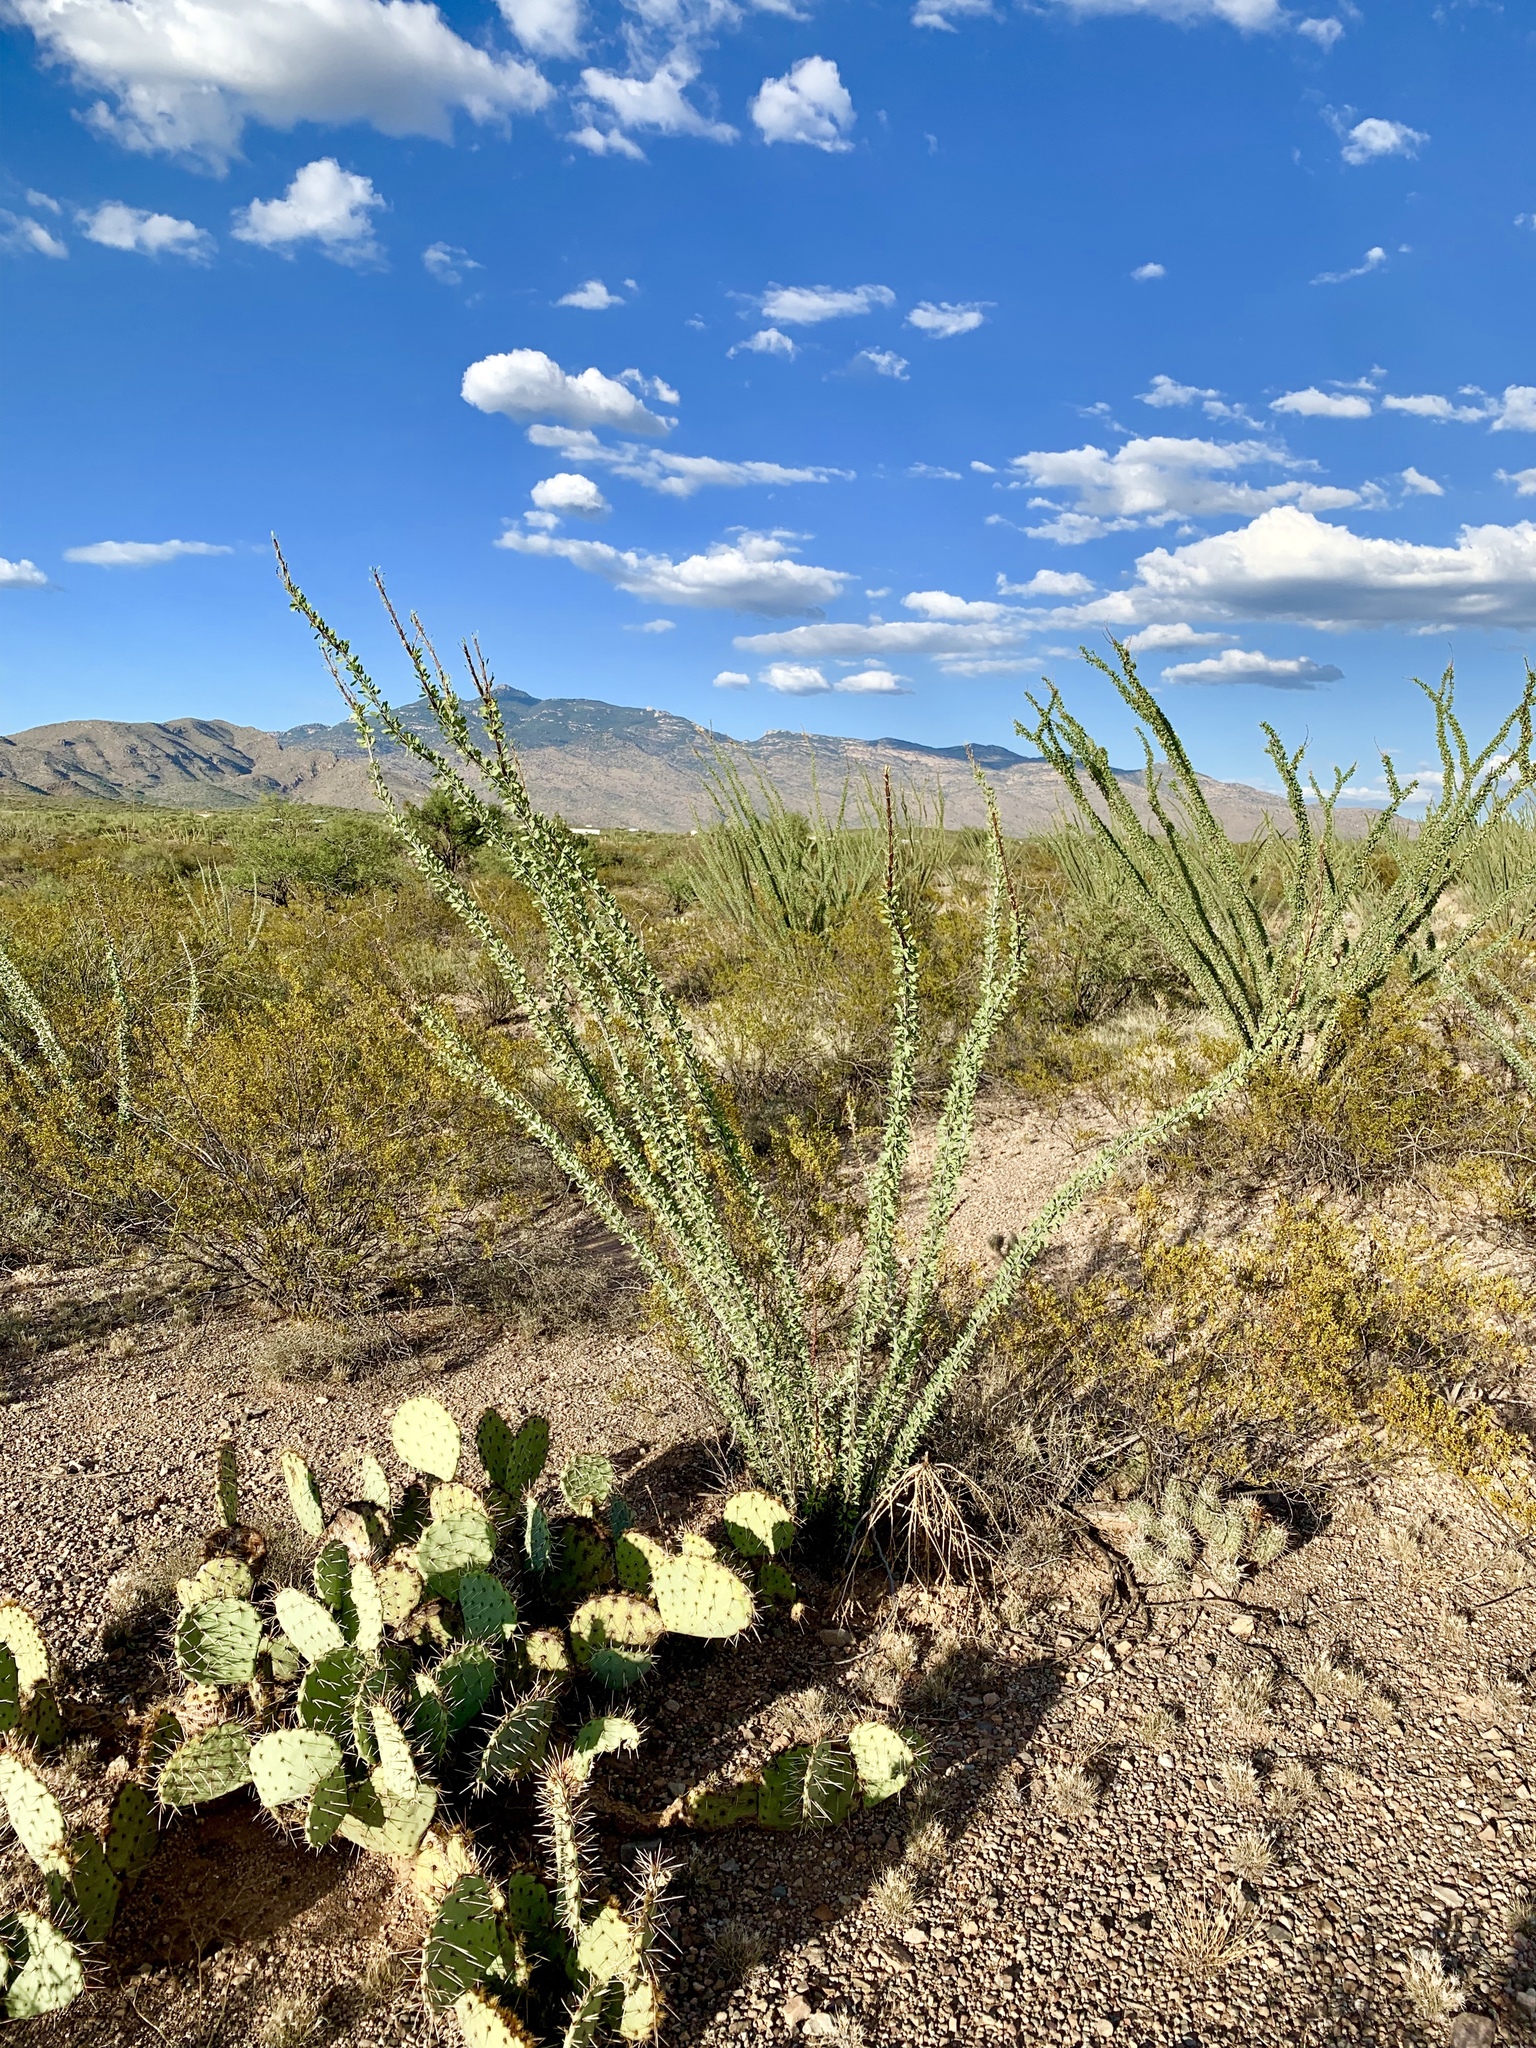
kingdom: Plantae
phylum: Tracheophyta
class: Magnoliopsida
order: Ericales
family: Fouquieriaceae
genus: Fouquieria
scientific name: Fouquieria splendens
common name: Vine-cactus
